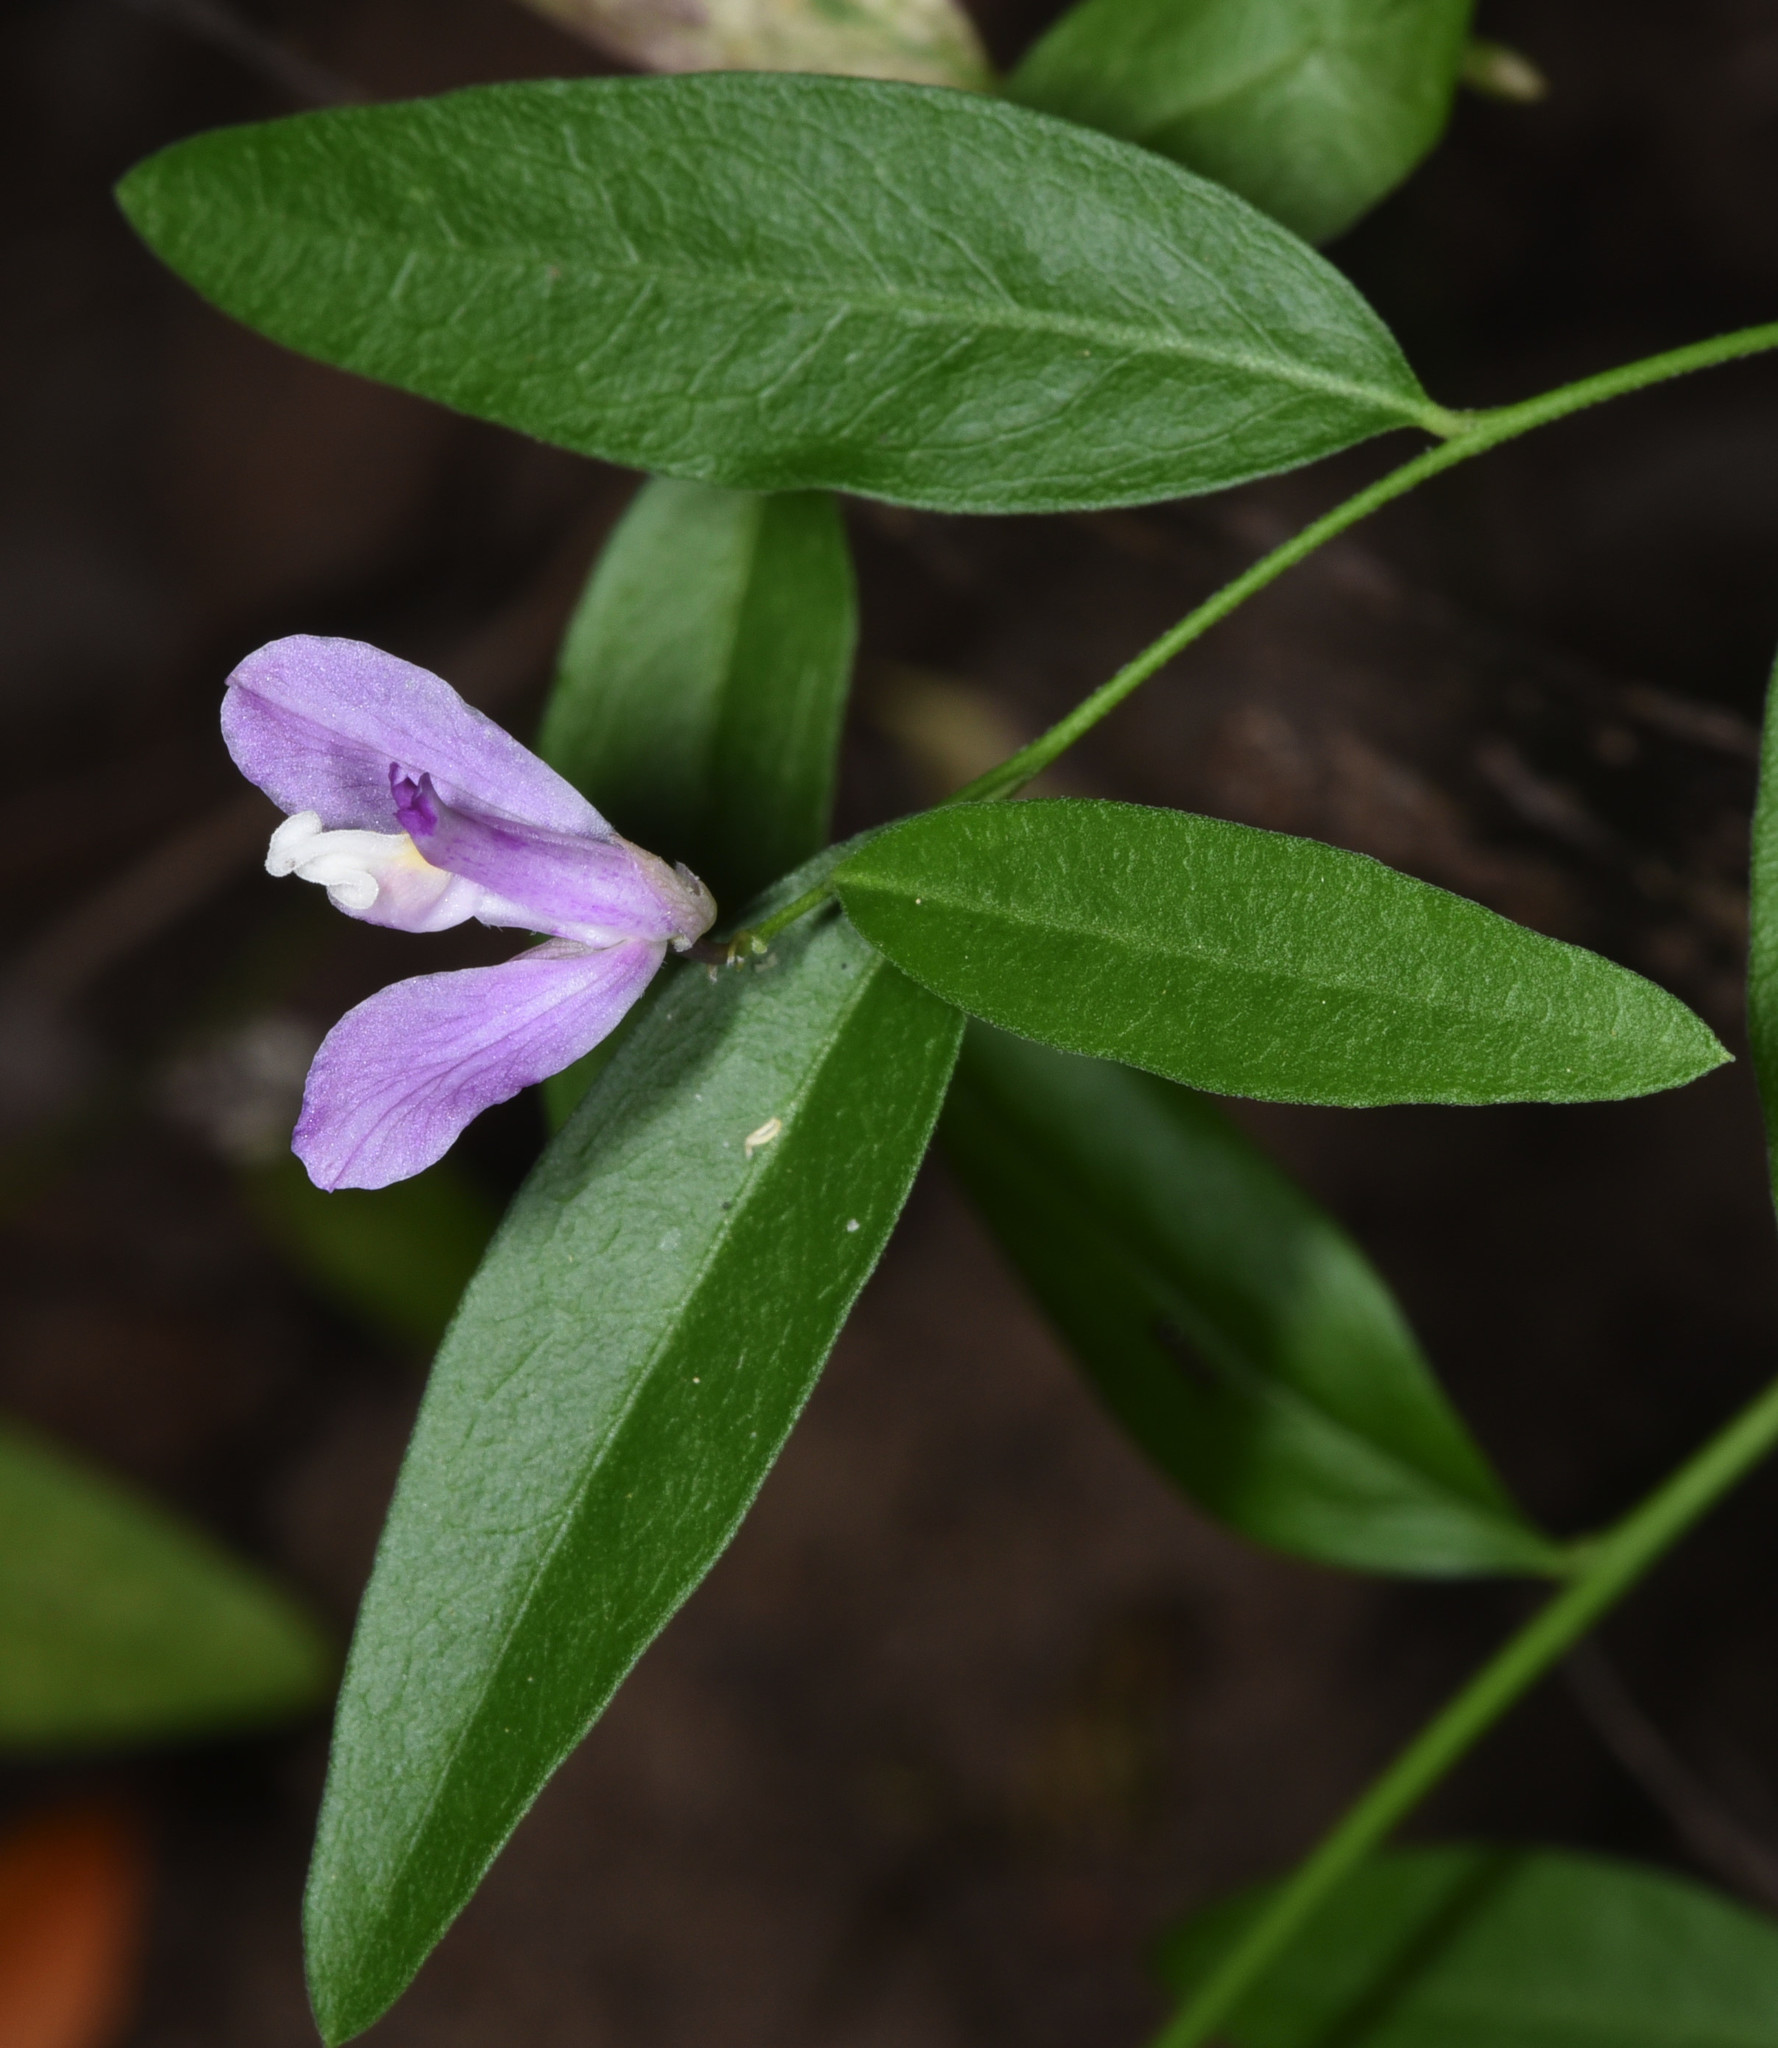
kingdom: Plantae
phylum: Tracheophyta
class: Magnoliopsida
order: Fabales
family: Polygalaceae
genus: Rhinotropis
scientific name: Rhinotropis californica
